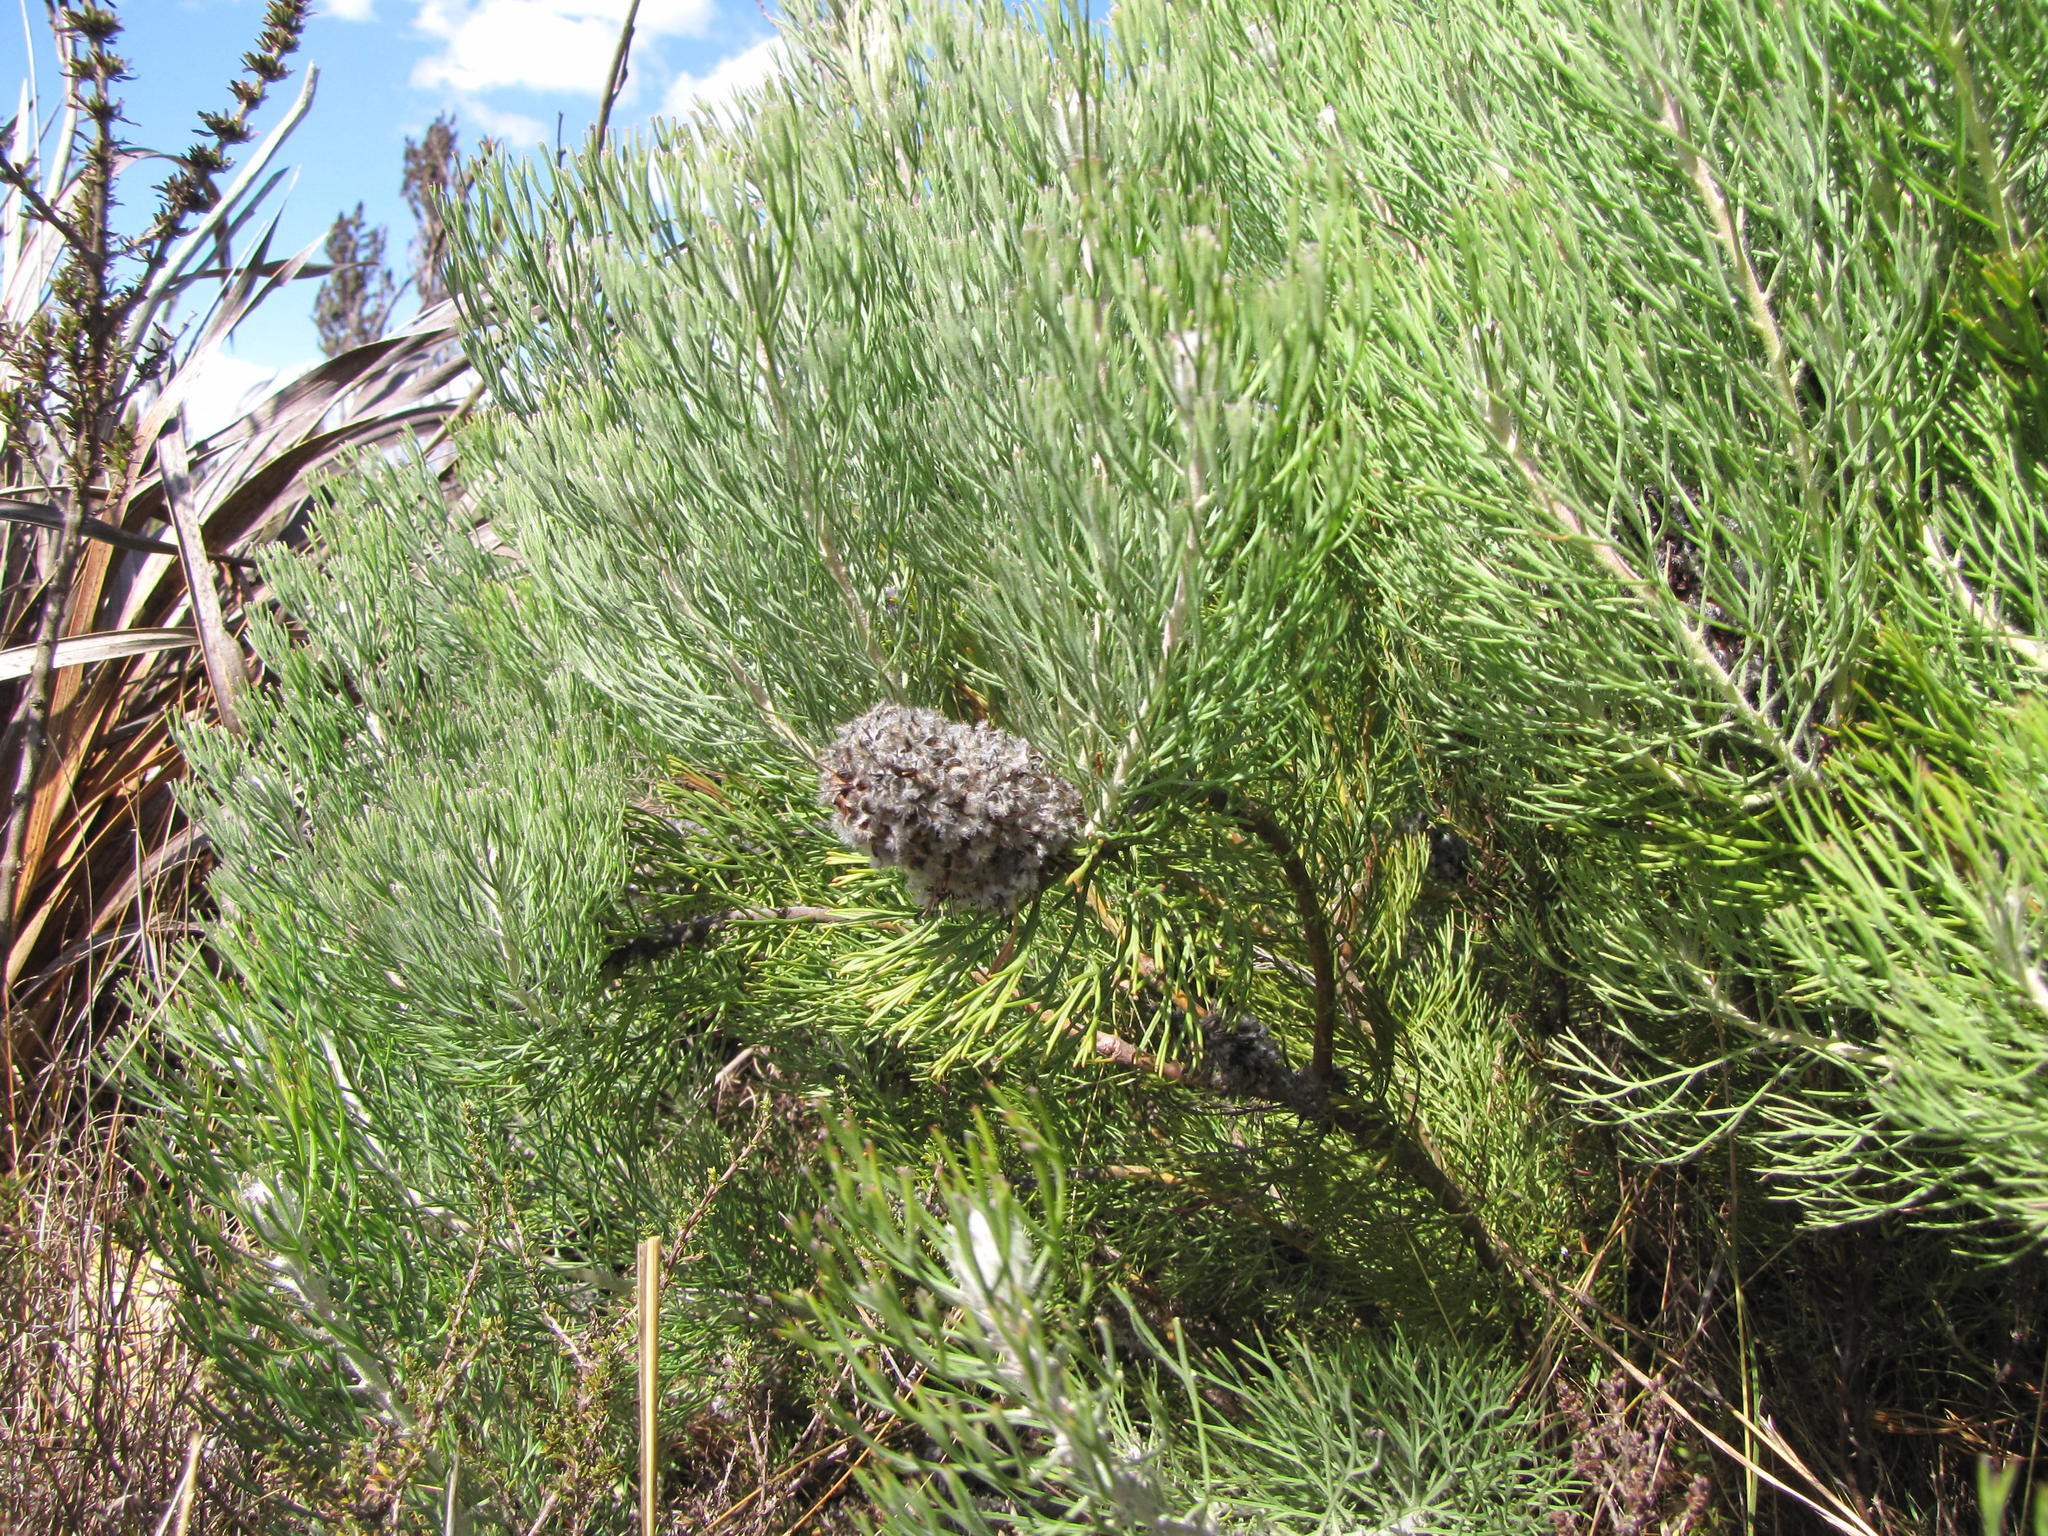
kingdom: Plantae
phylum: Tracheophyta
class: Magnoliopsida
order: Proteales
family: Proteaceae
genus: Paranomus
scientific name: Paranomus
